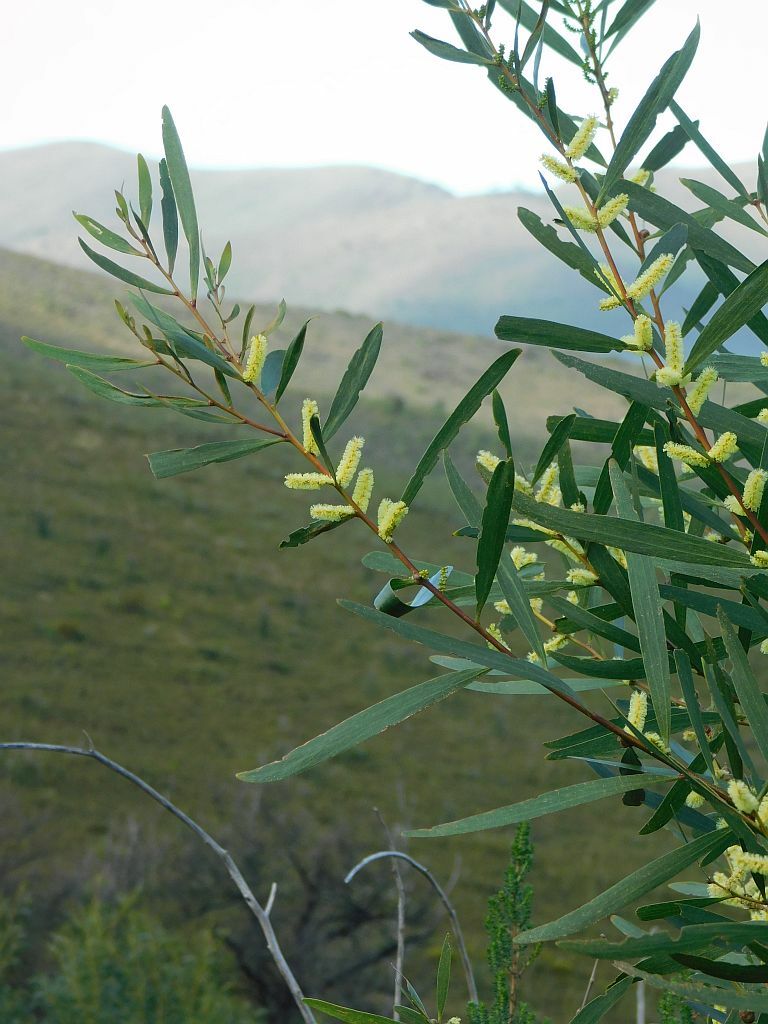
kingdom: Plantae
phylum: Tracheophyta
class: Magnoliopsida
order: Fabales
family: Fabaceae
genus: Acacia
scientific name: Acacia longifolia
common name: Sydney golden wattle
